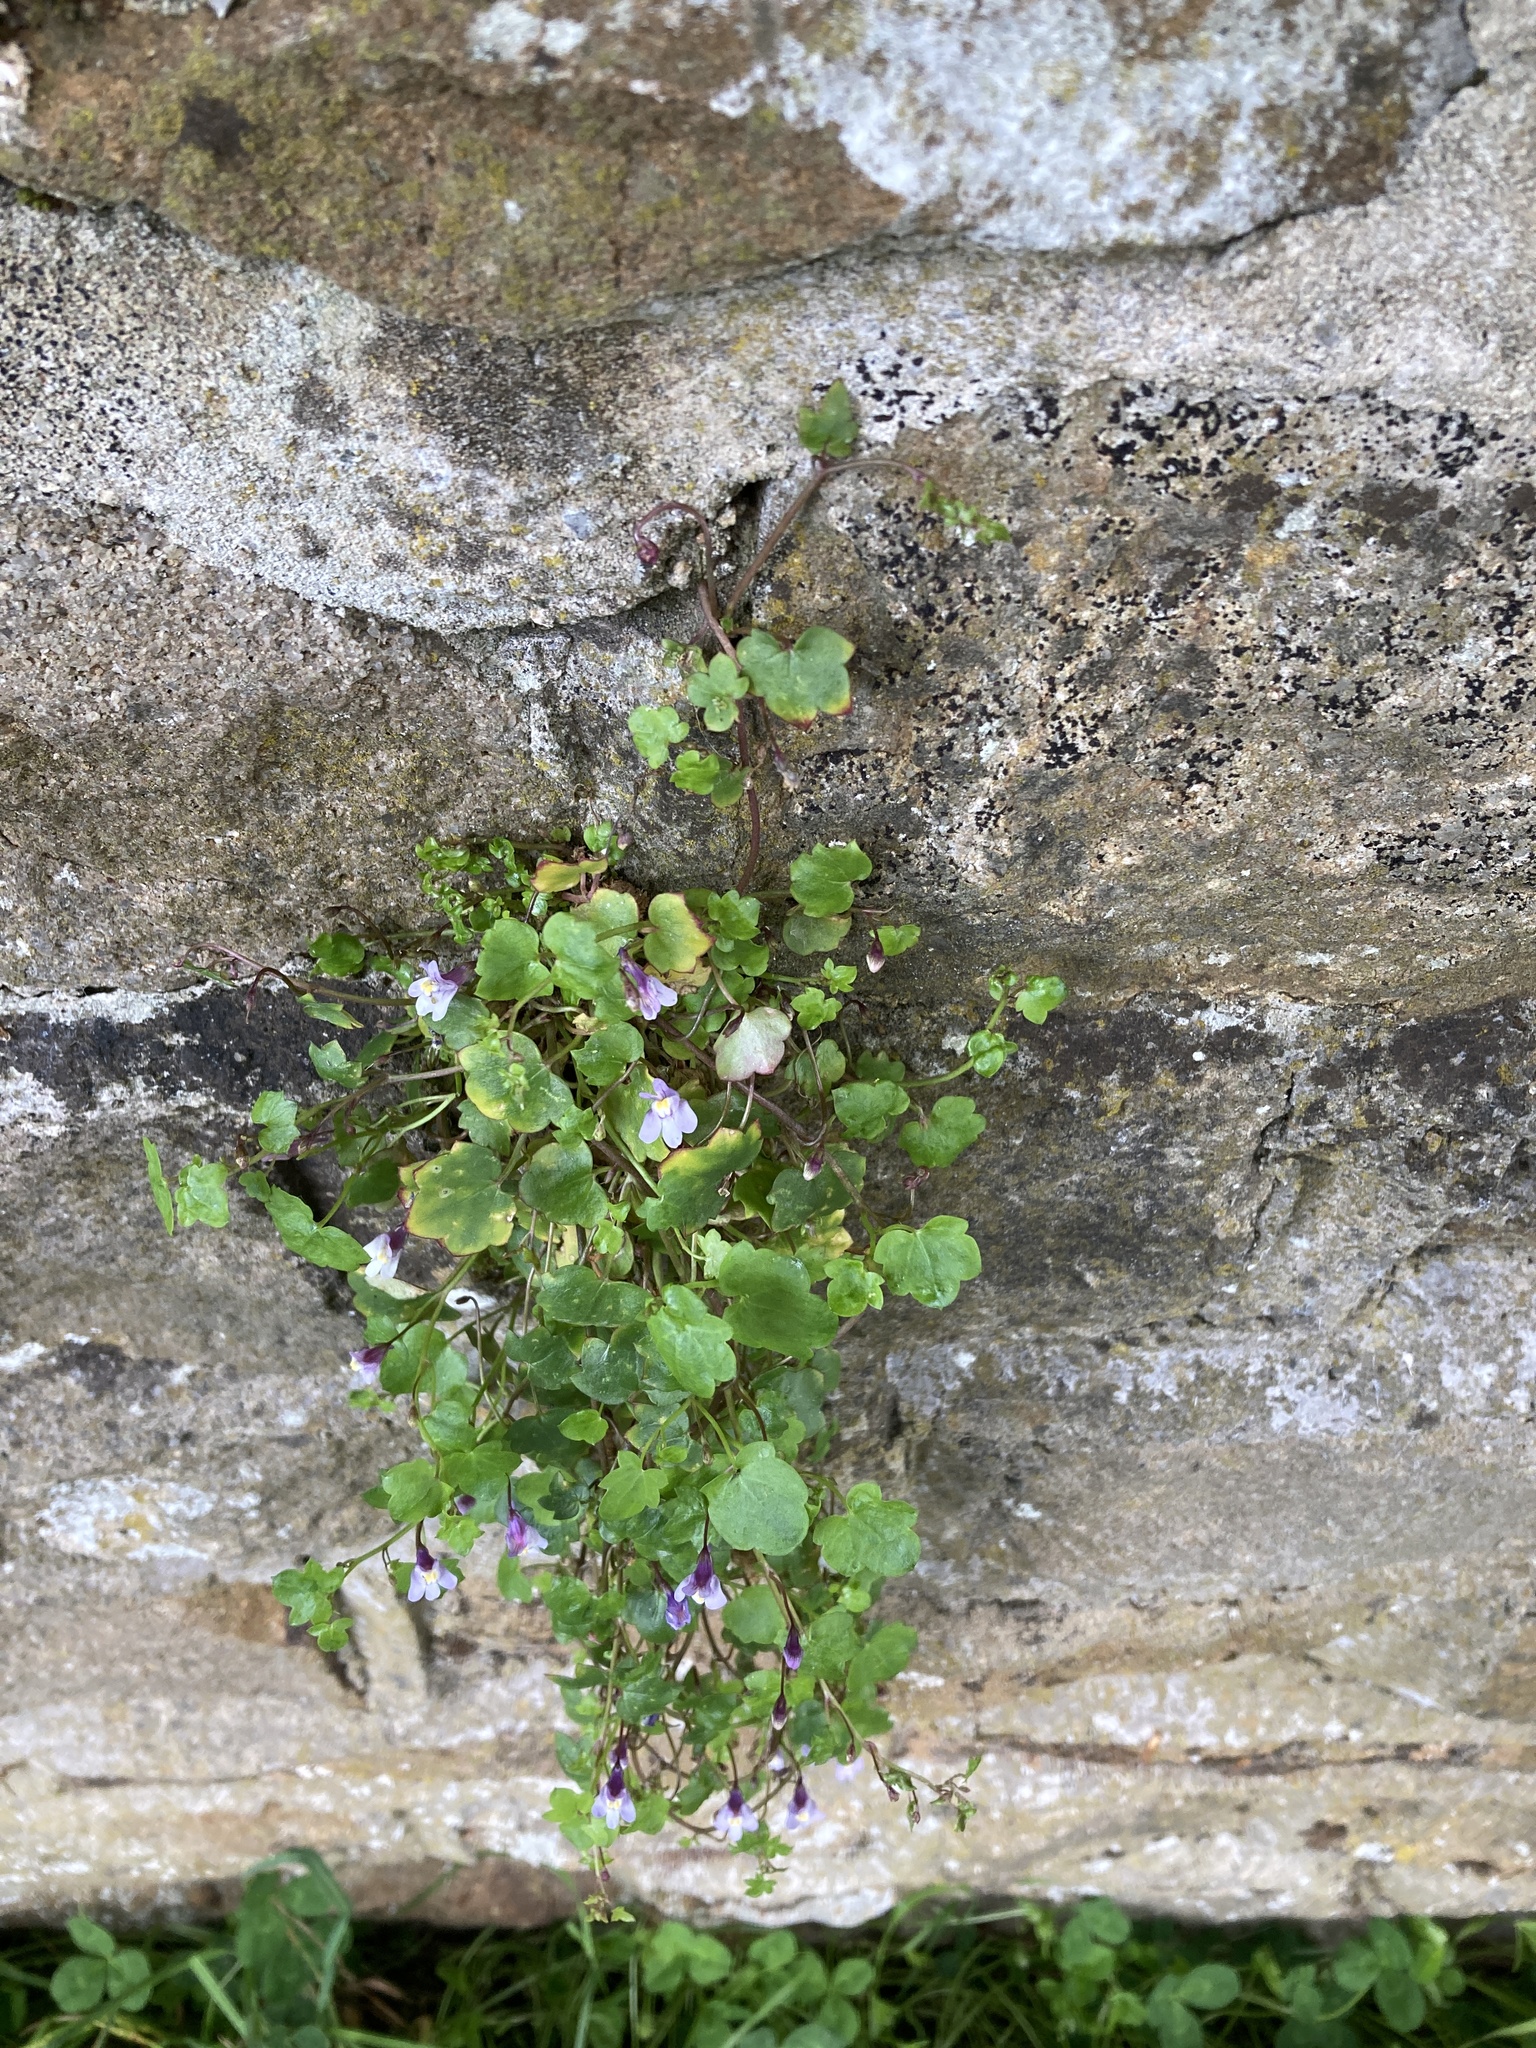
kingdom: Plantae
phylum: Tracheophyta
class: Magnoliopsida
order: Lamiales
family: Plantaginaceae
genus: Cymbalaria
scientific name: Cymbalaria muralis
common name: Ivy-leaved toadflax
